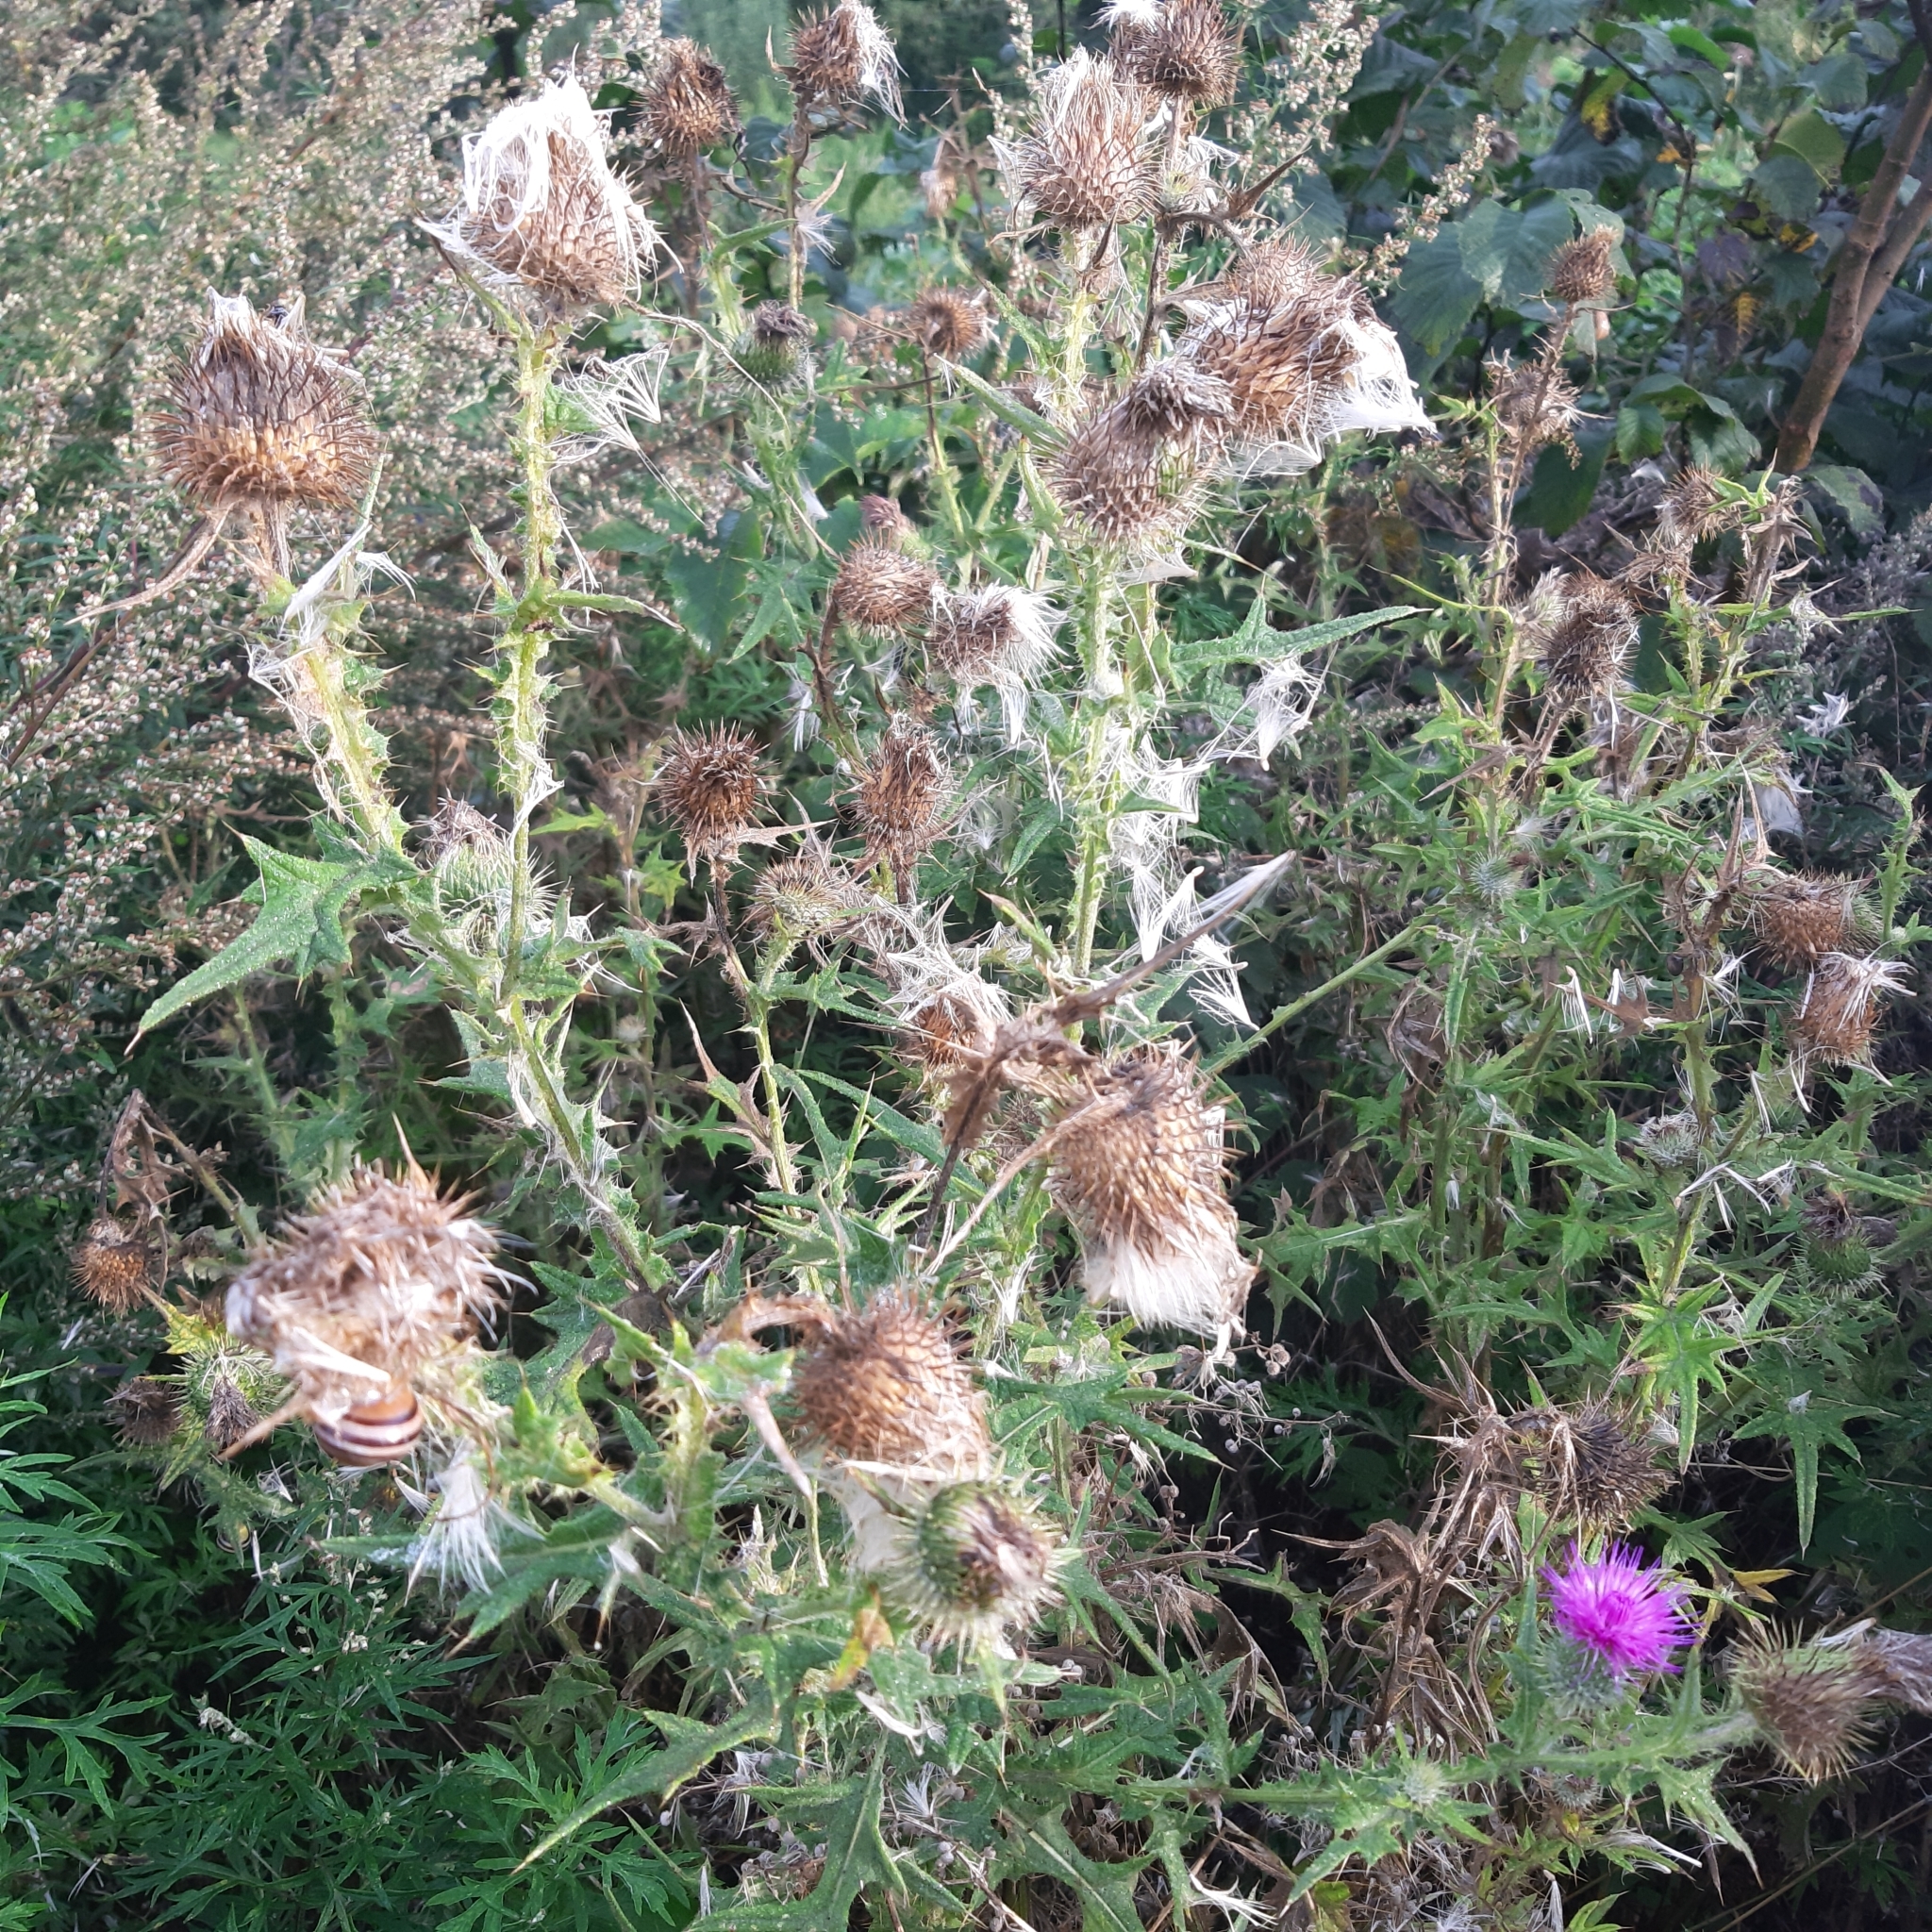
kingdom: Plantae
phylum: Tracheophyta
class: Magnoliopsida
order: Asterales
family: Asteraceae
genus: Cirsium
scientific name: Cirsium vulgare
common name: Bull thistle
